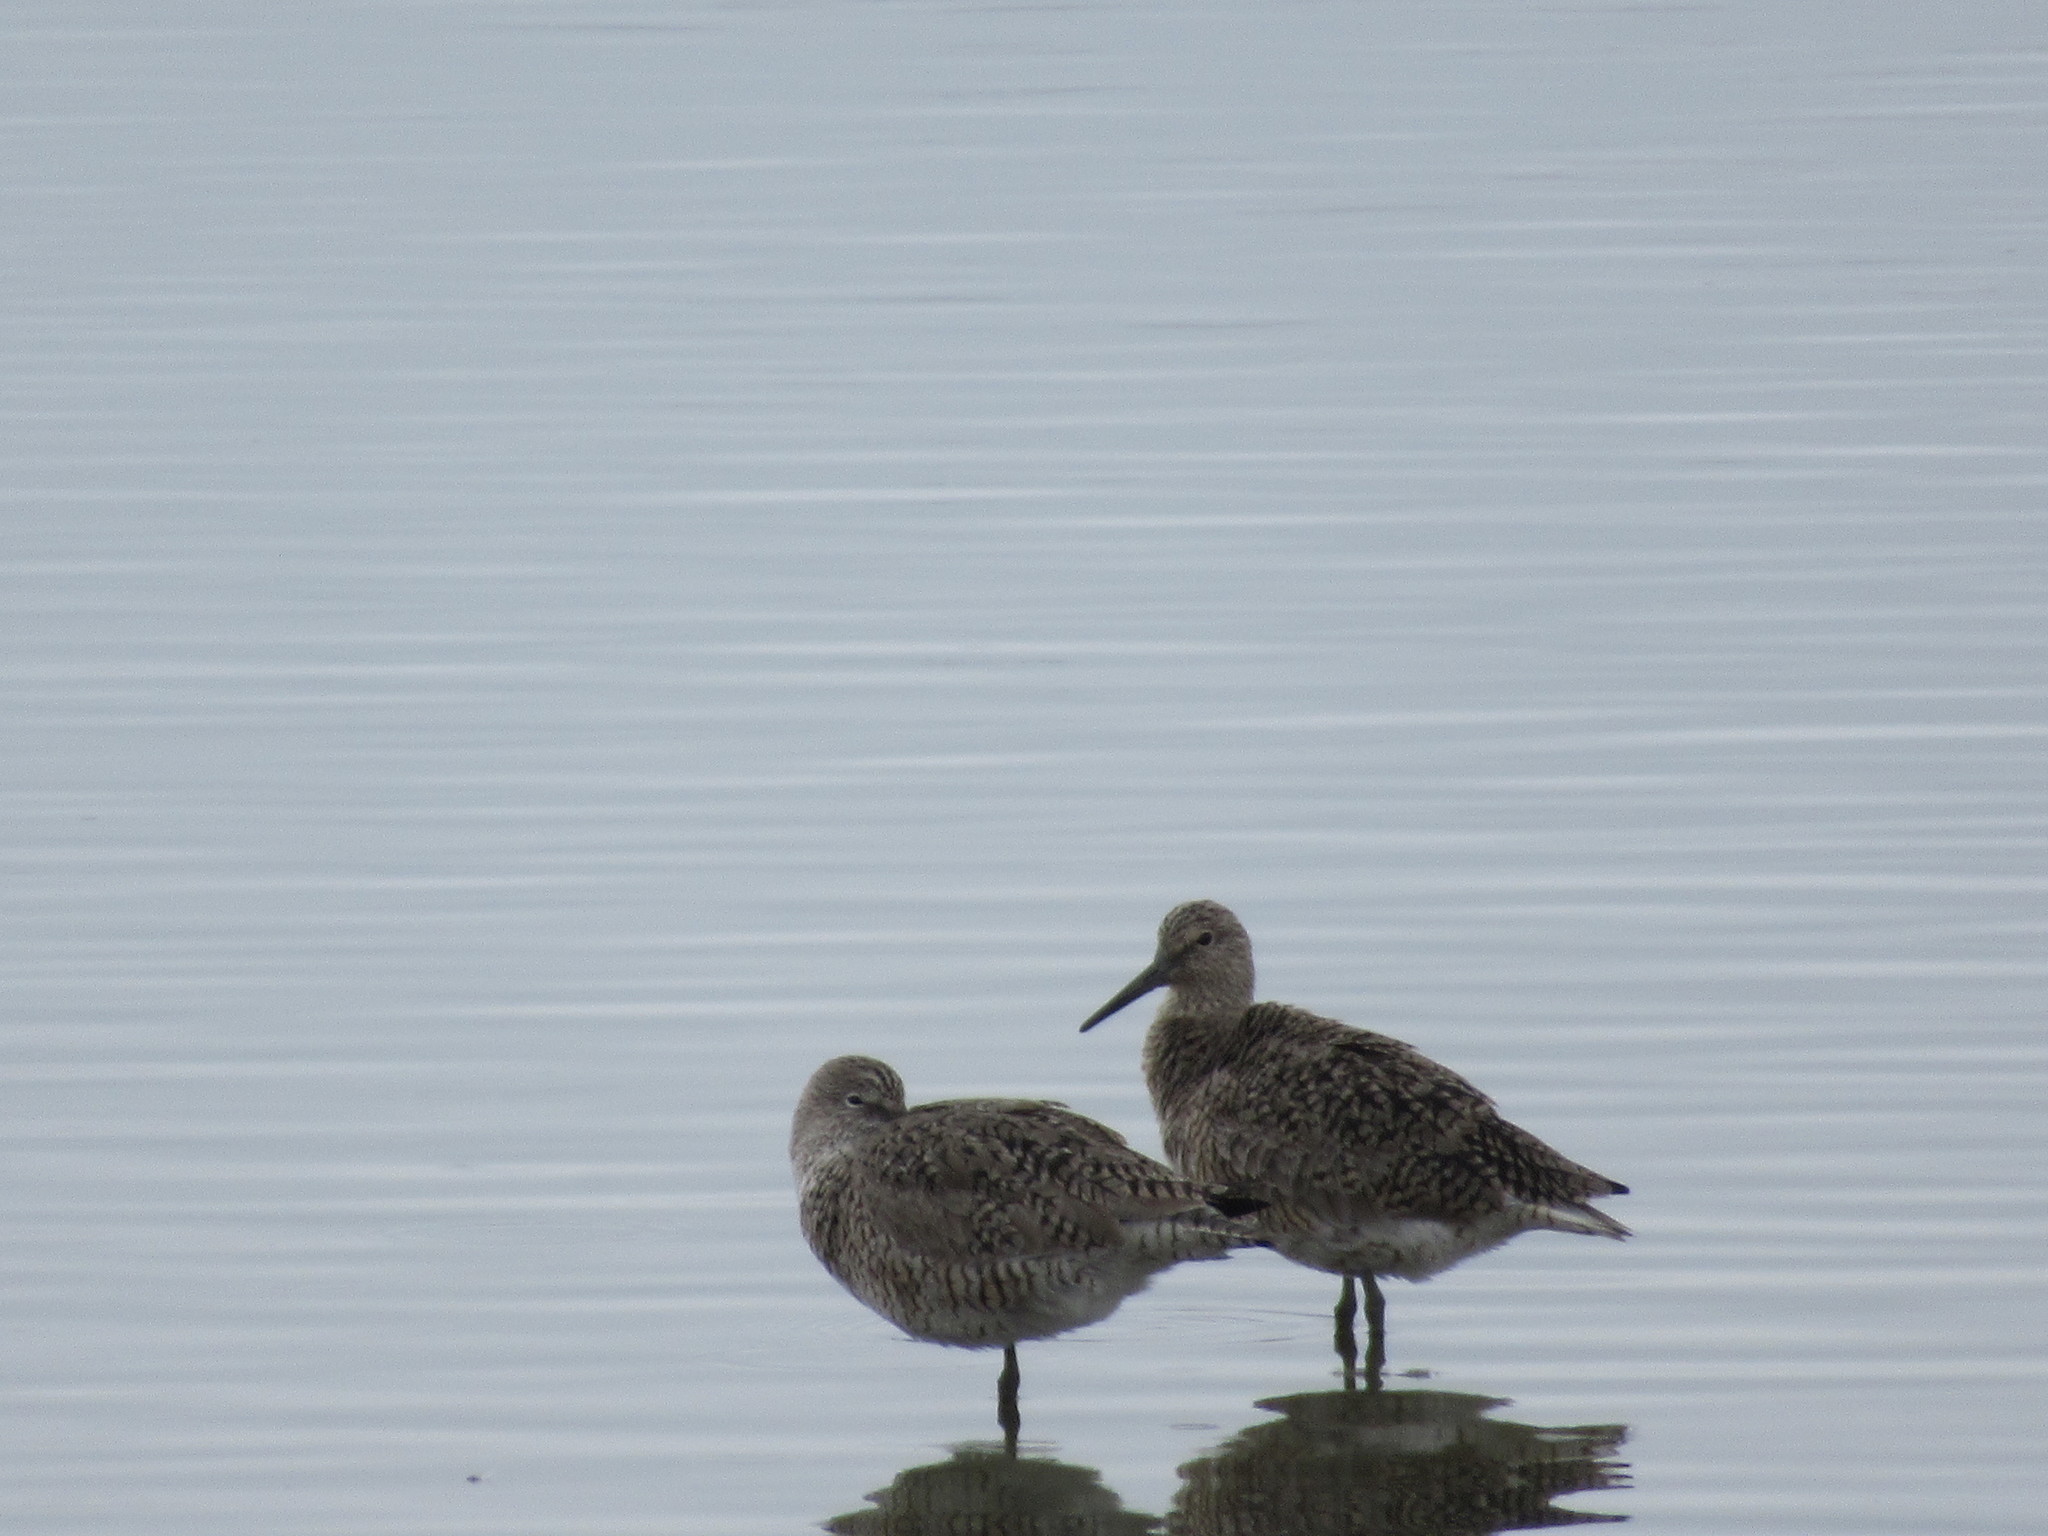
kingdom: Animalia
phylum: Chordata
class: Aves
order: Charadriiformes
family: Scolopacidae
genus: Tringa
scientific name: Tringa semipalmata
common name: Willet
